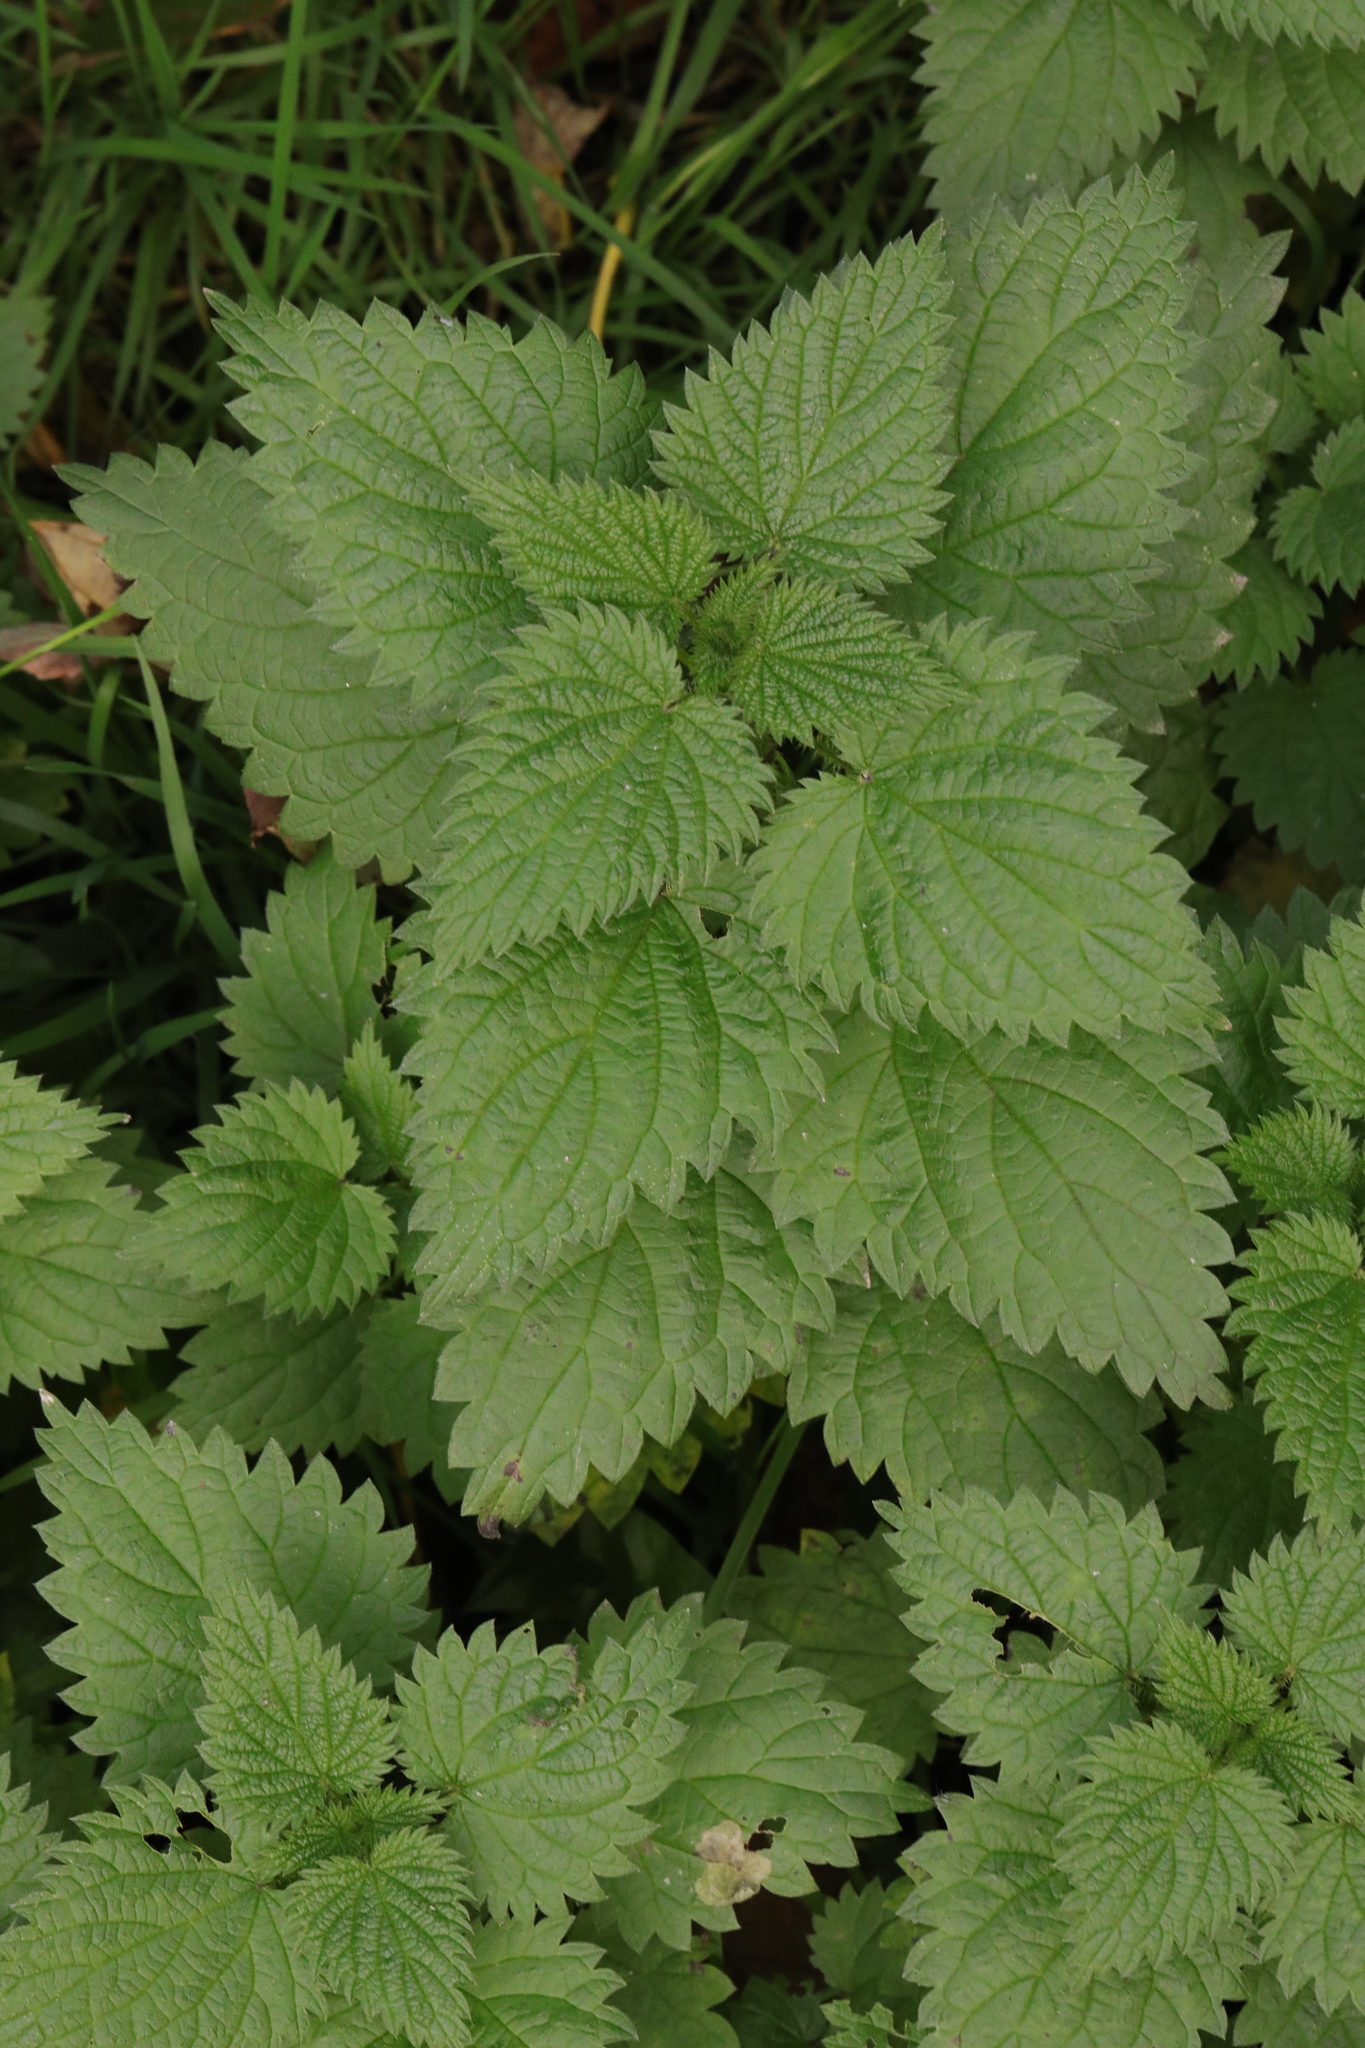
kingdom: Plantae
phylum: Tracheophyta
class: Magnoliopsida
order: Rosales
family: Urticaceae
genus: Urtica
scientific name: Urtica dioica
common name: Common nettle
